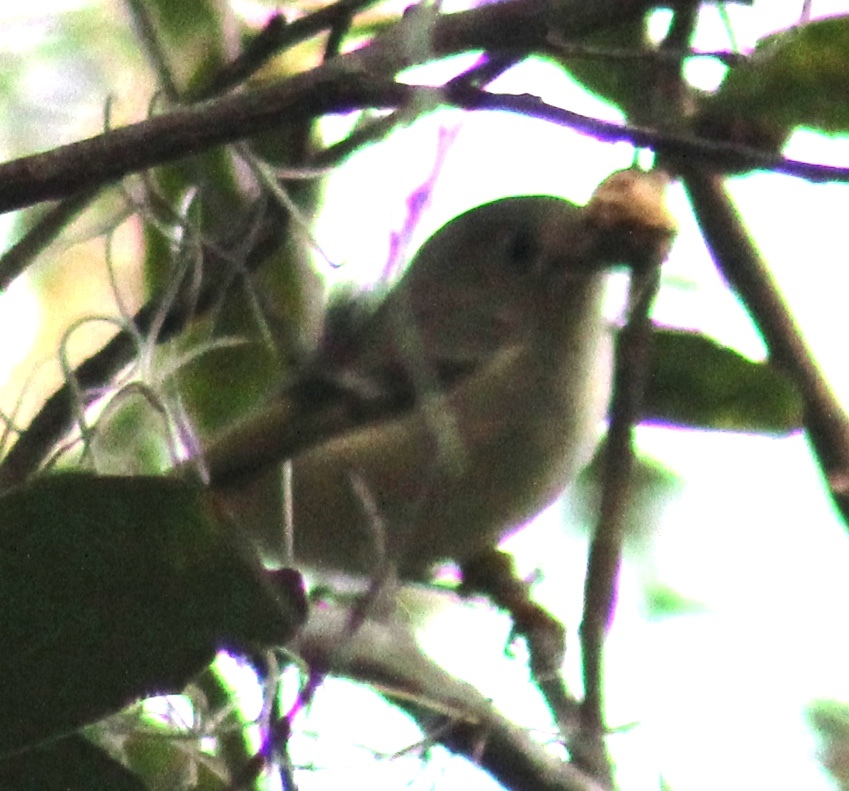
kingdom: Animalia
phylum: Chordata
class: Aves
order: Passeriformes
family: Regulidae
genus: Regulus
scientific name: Regulus calendula
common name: Ruby-crowned kinglet
